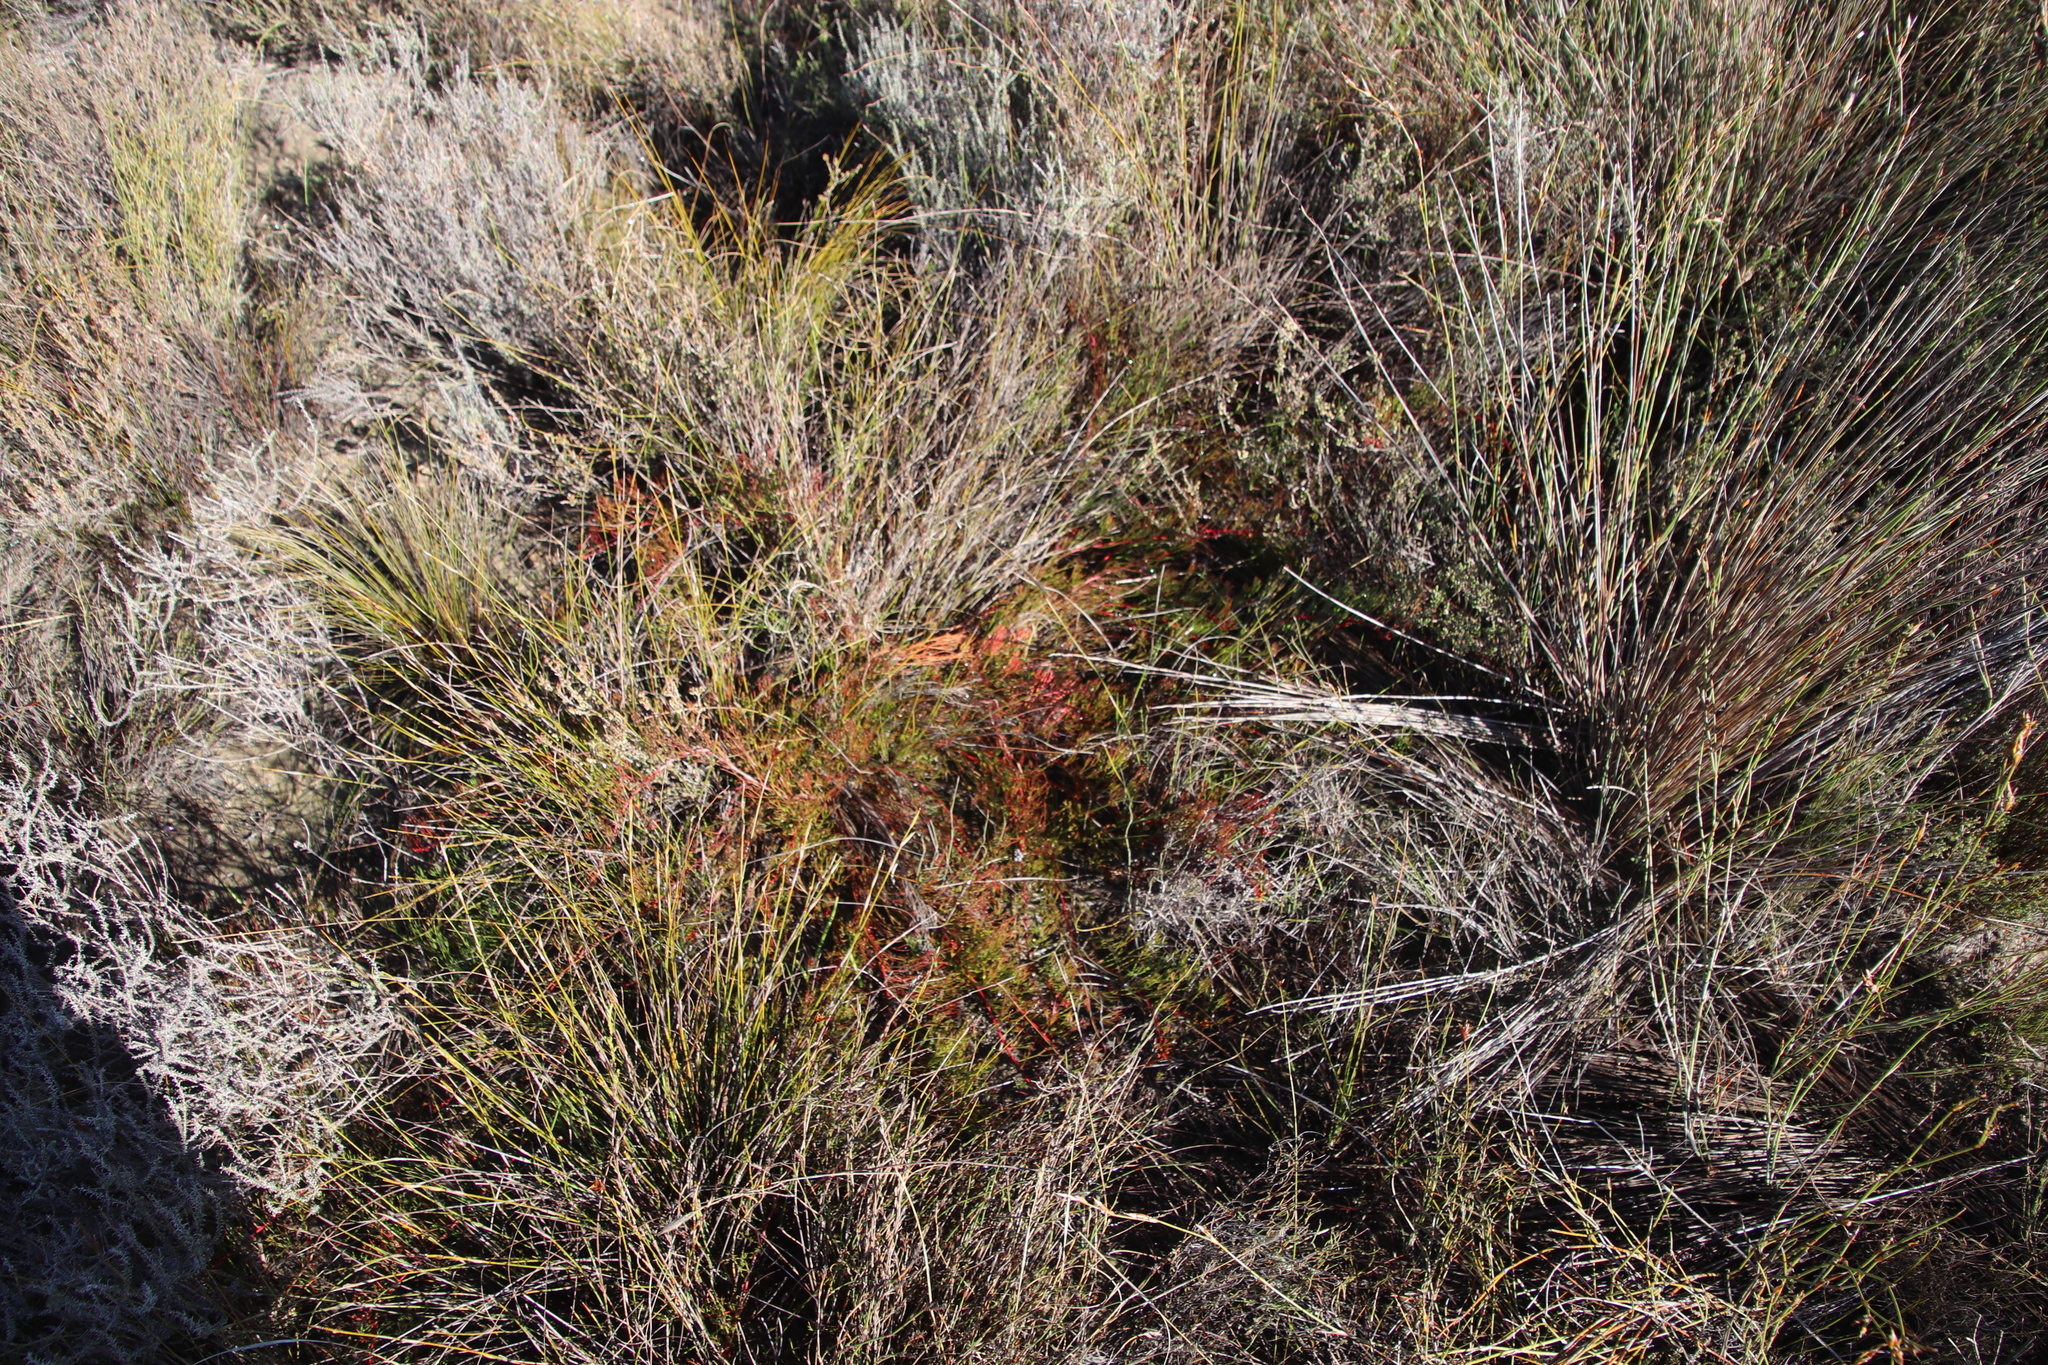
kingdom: Plantae
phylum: Tracheophyta
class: Magnoliopsida
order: Proteales
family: Proteaceae
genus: Serruria
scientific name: Serruria effusa
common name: Candelabra spiderhead
